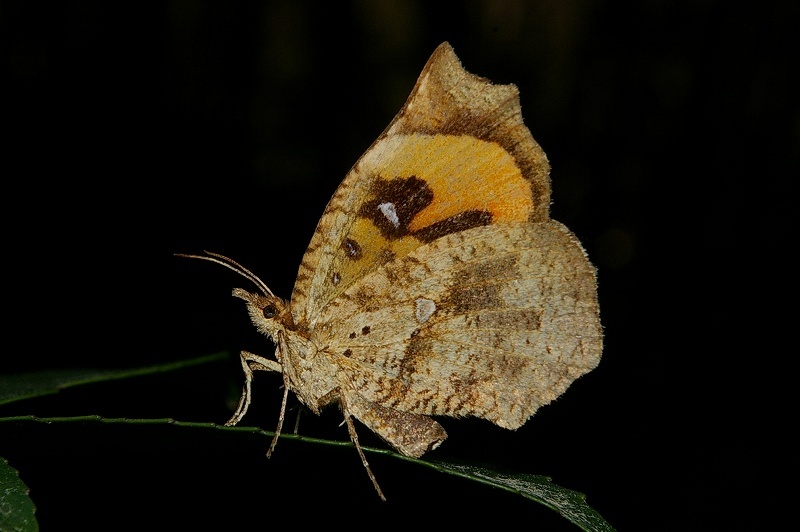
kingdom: Animalia
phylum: Arthropoda
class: Insecta
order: Lepidoptera
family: Callidulidae
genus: Pterodecta
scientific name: Pterodecta felderi
